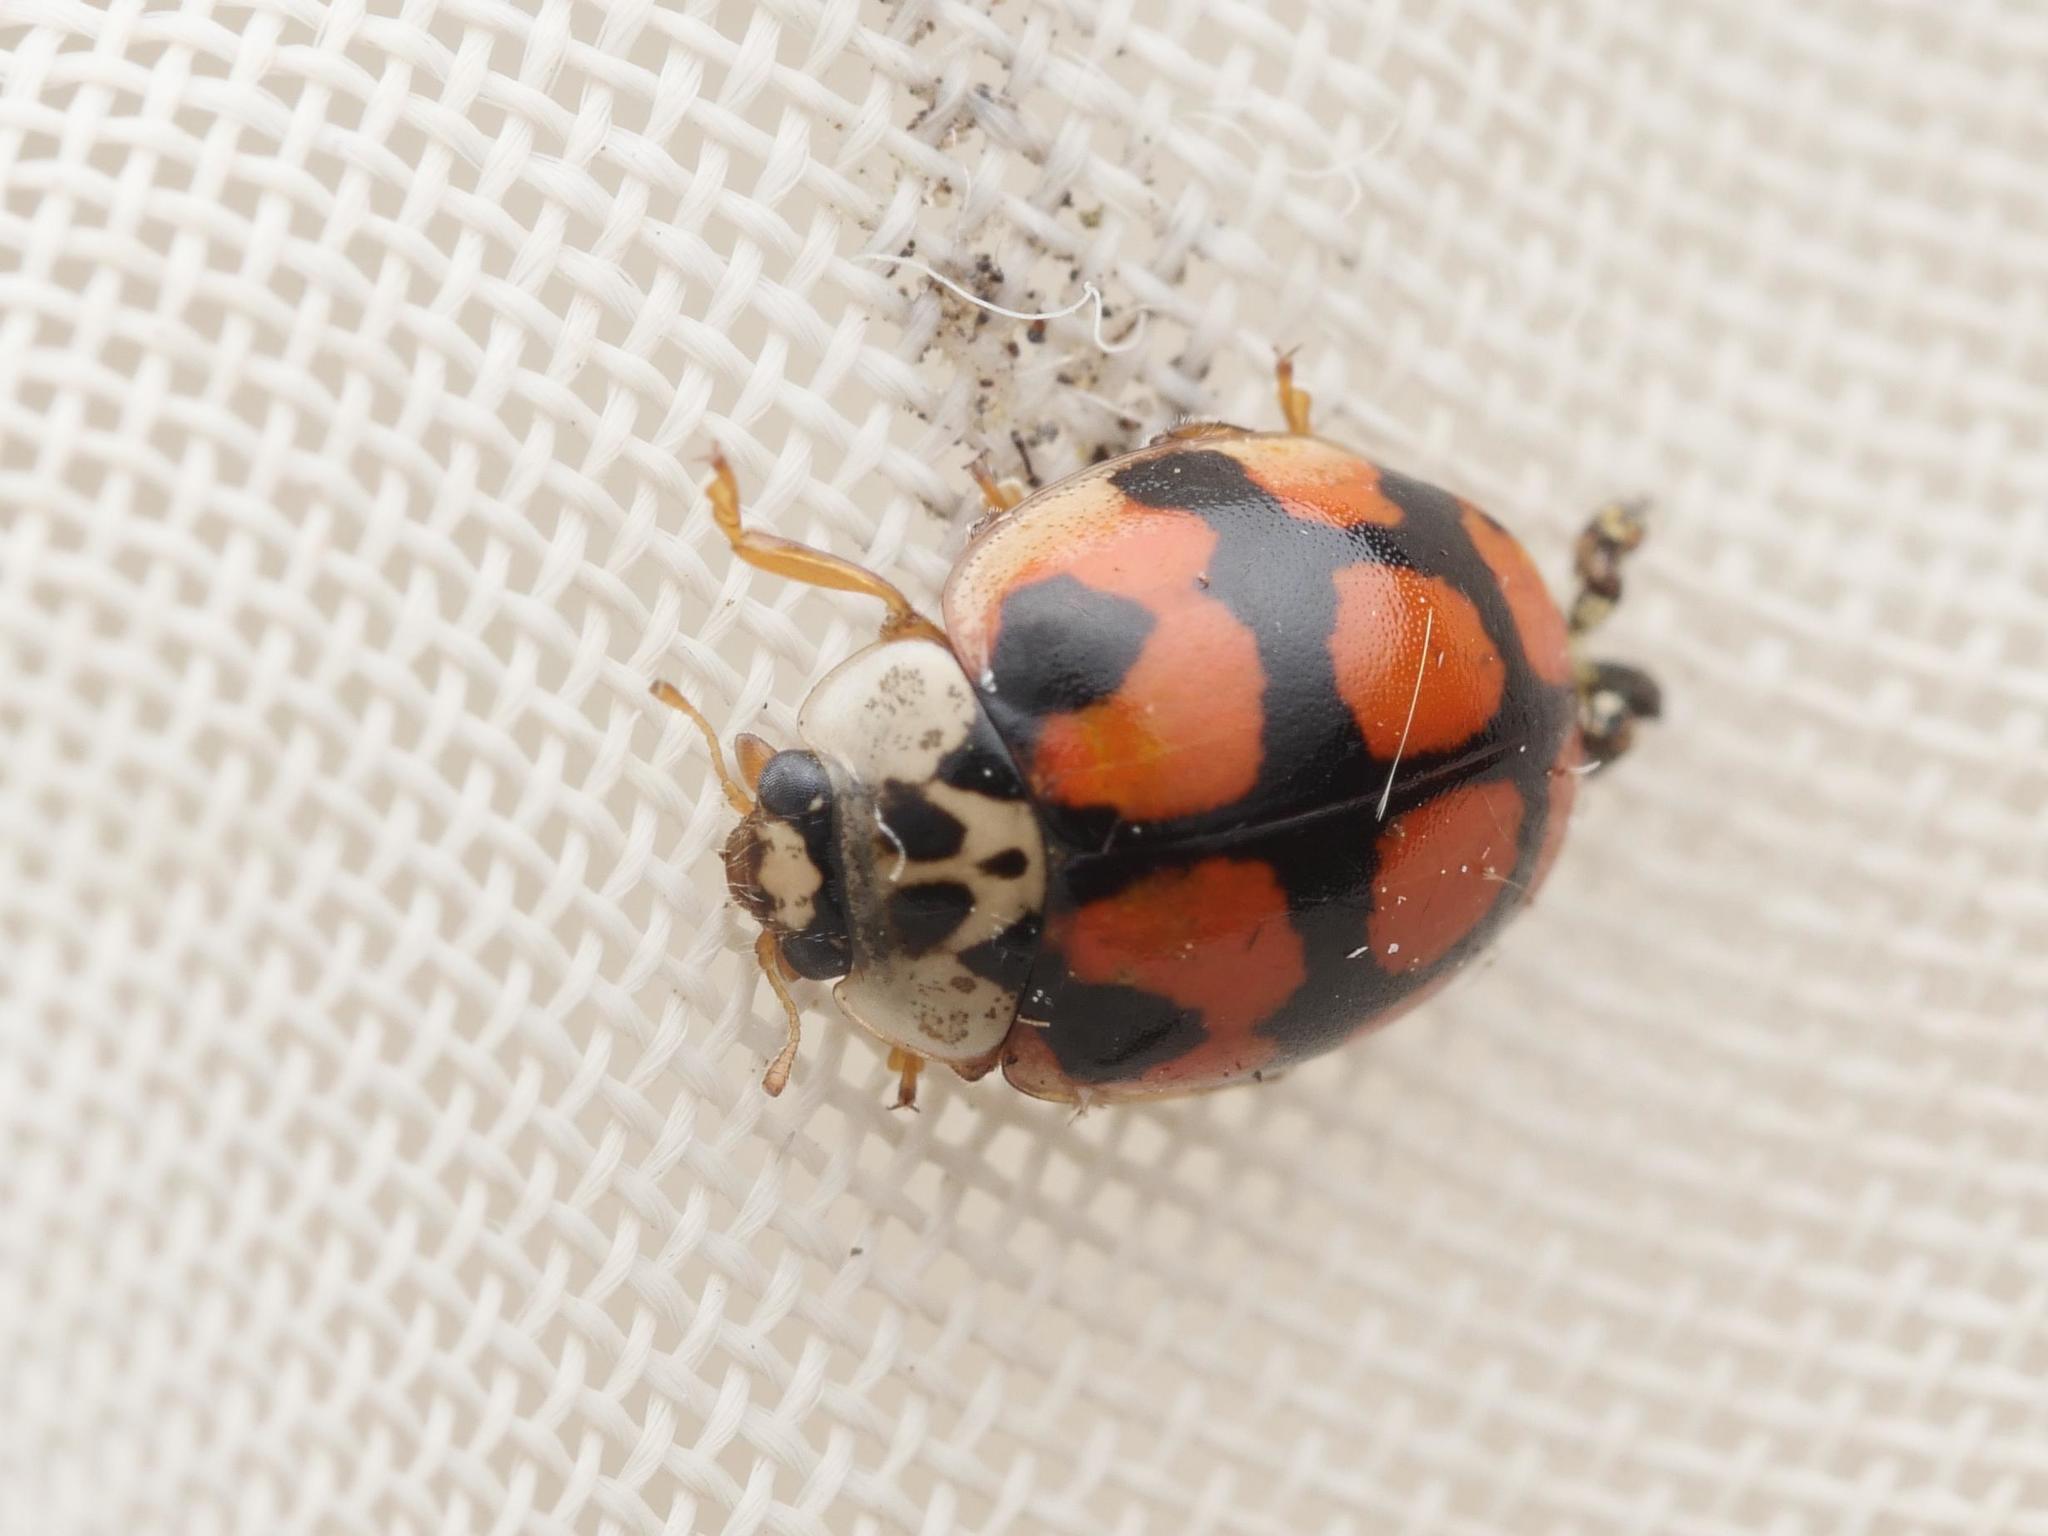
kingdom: Animalia
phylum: Arthropoda
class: Insecta
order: Coleoptera
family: Coccinellidae
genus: Adalia
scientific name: Adalia decempunctata
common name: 10-spot ladybird
